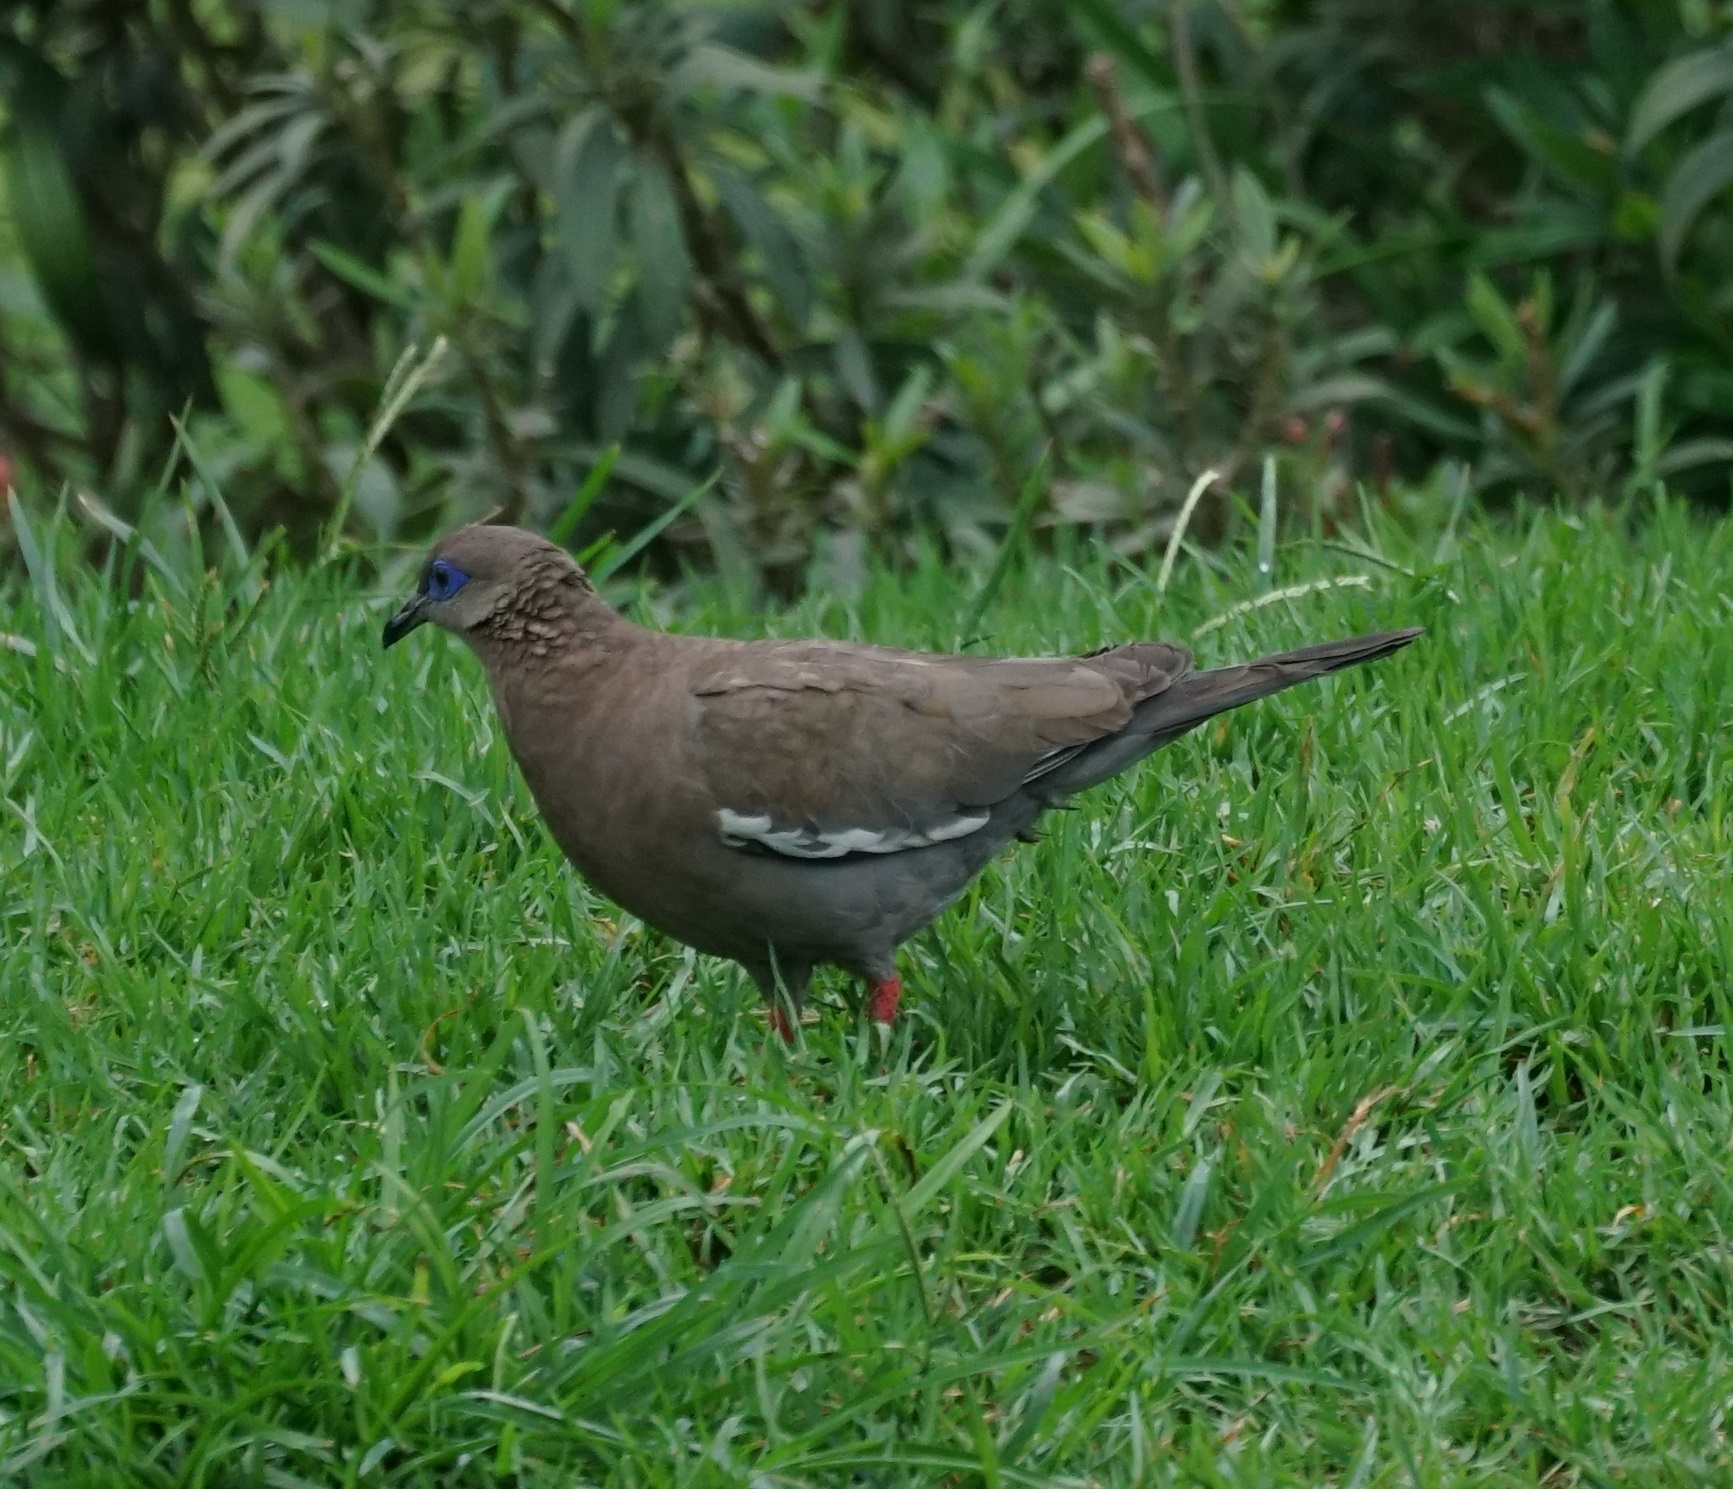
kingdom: Animalia
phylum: Chordata
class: Aves
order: Columbiformes
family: Columbidae
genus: Zenaida
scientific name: Zenaida meloda
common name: West peruvian dove
